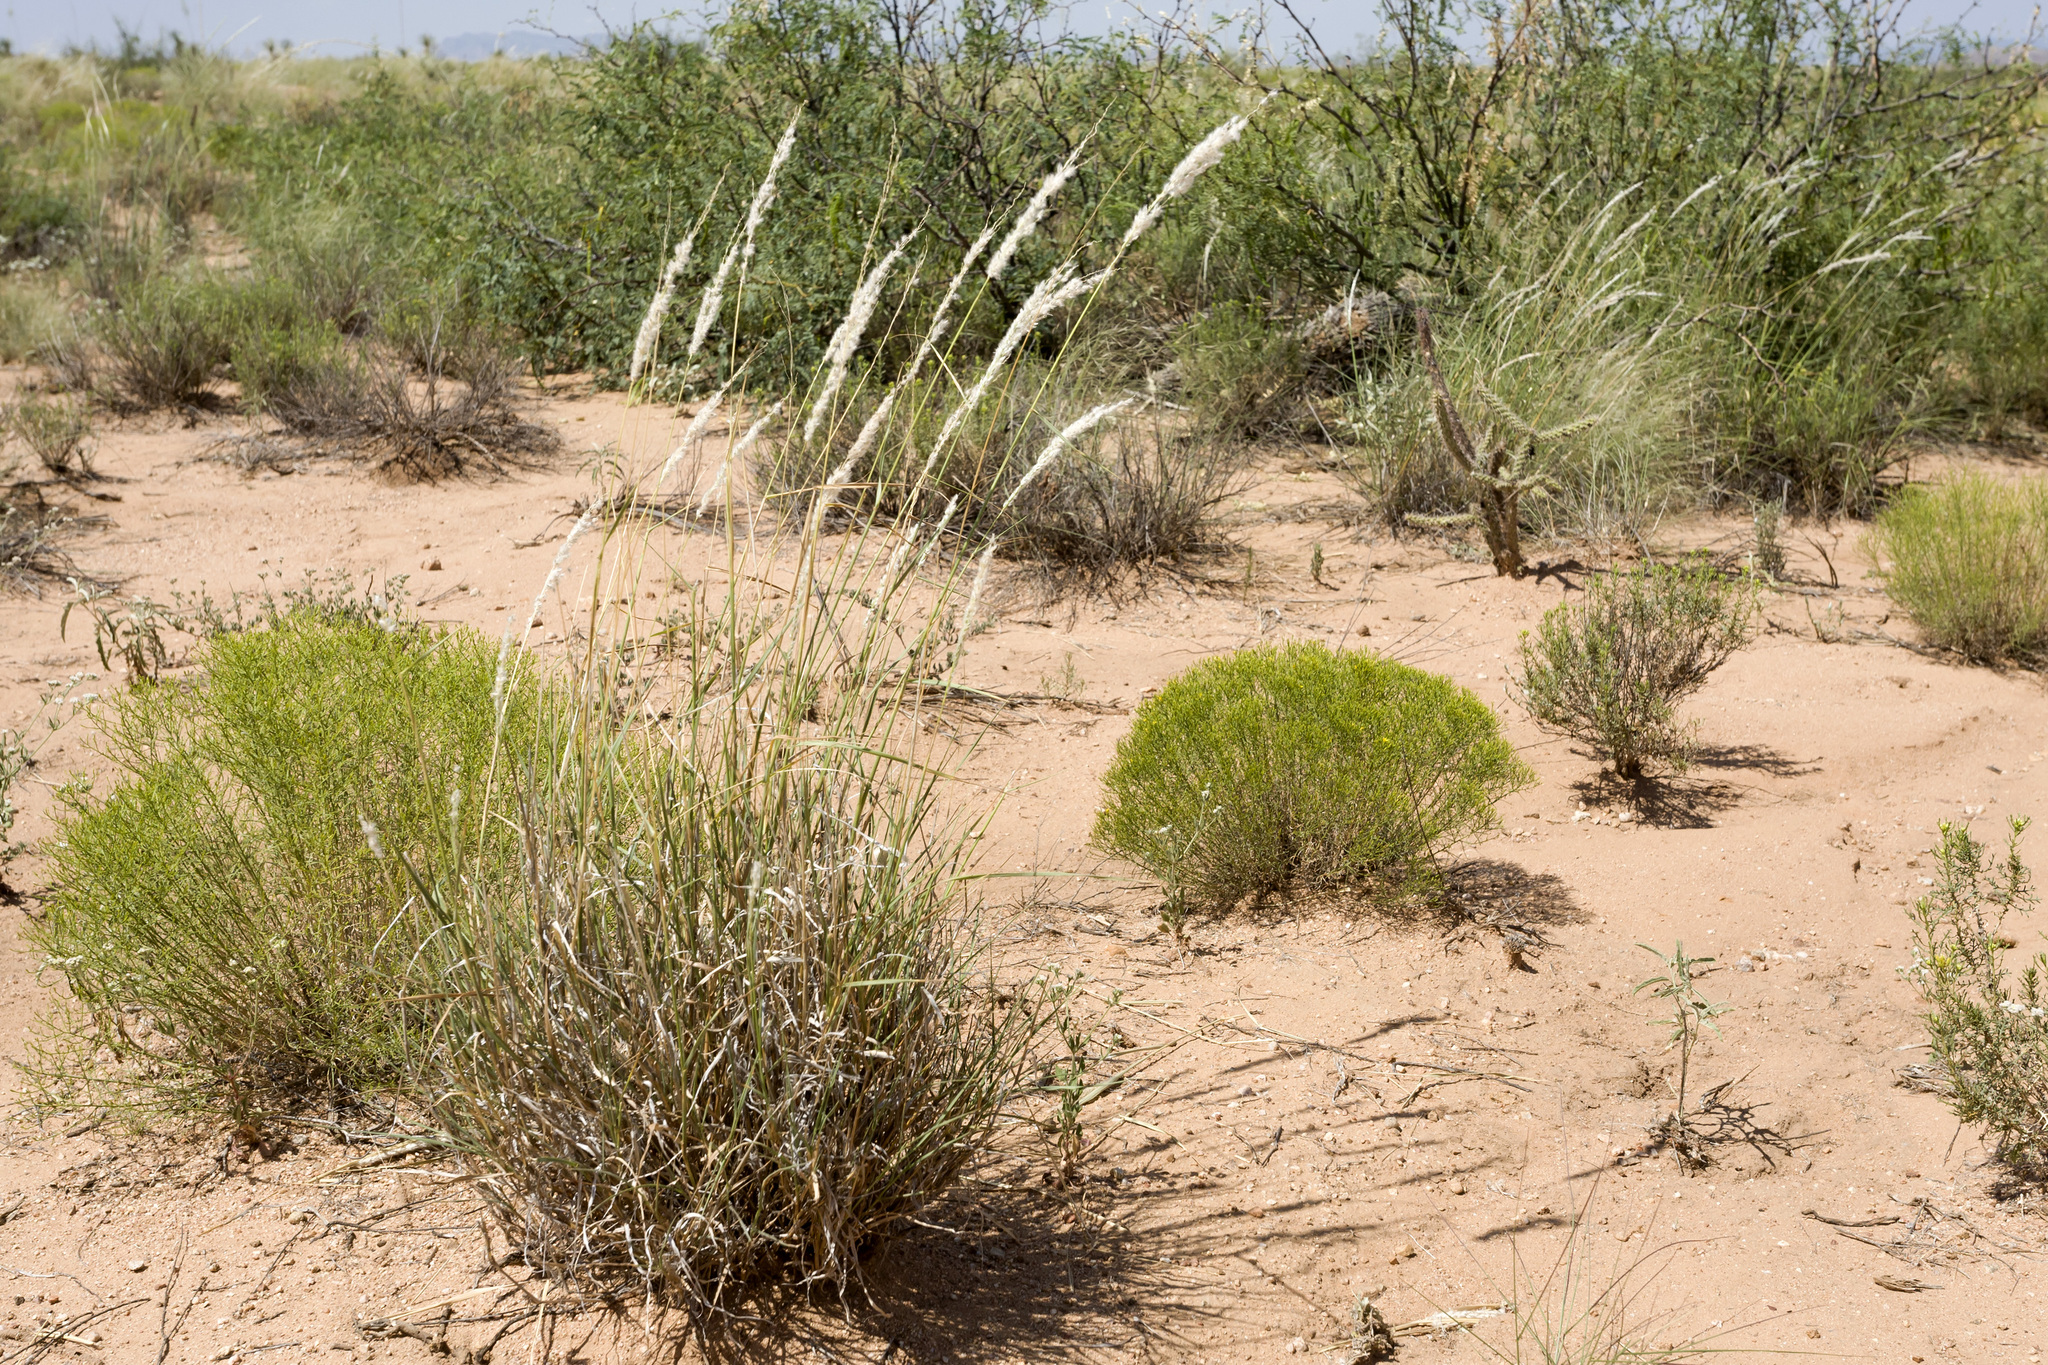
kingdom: Plantae
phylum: Tracheophyta
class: Liliopsida
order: Poales
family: Poaceae
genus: Digitaria
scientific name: Digitaria californica
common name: Arizona cottontop
